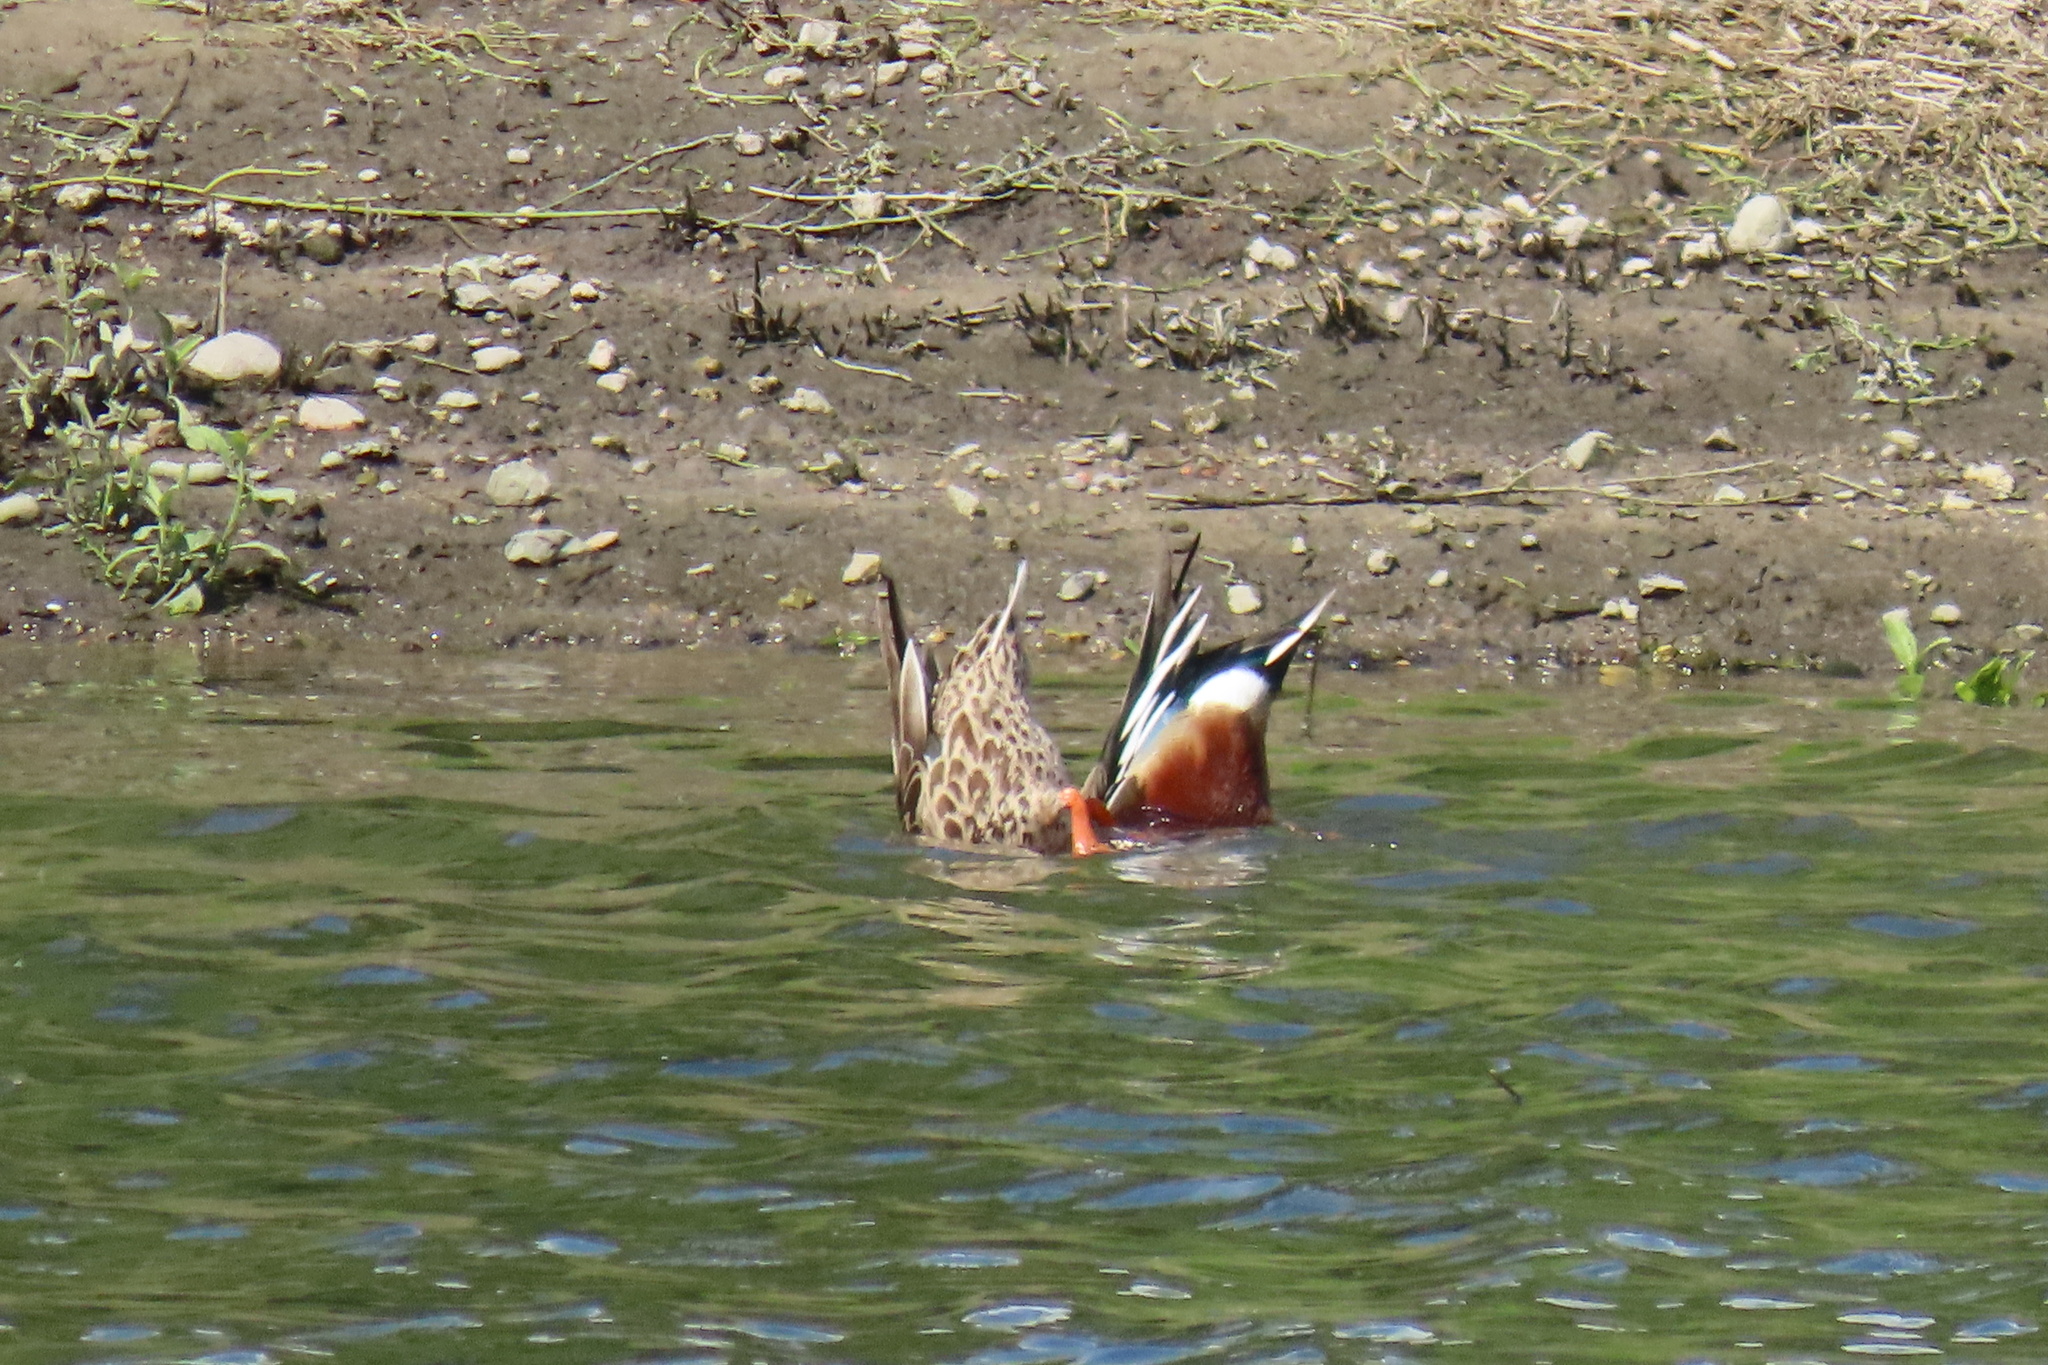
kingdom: Animalia
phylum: Chordata
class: Aves
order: Anseriformes
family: Anatidae
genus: Spatula
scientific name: Spatula clypeata
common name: Northern shoveler
